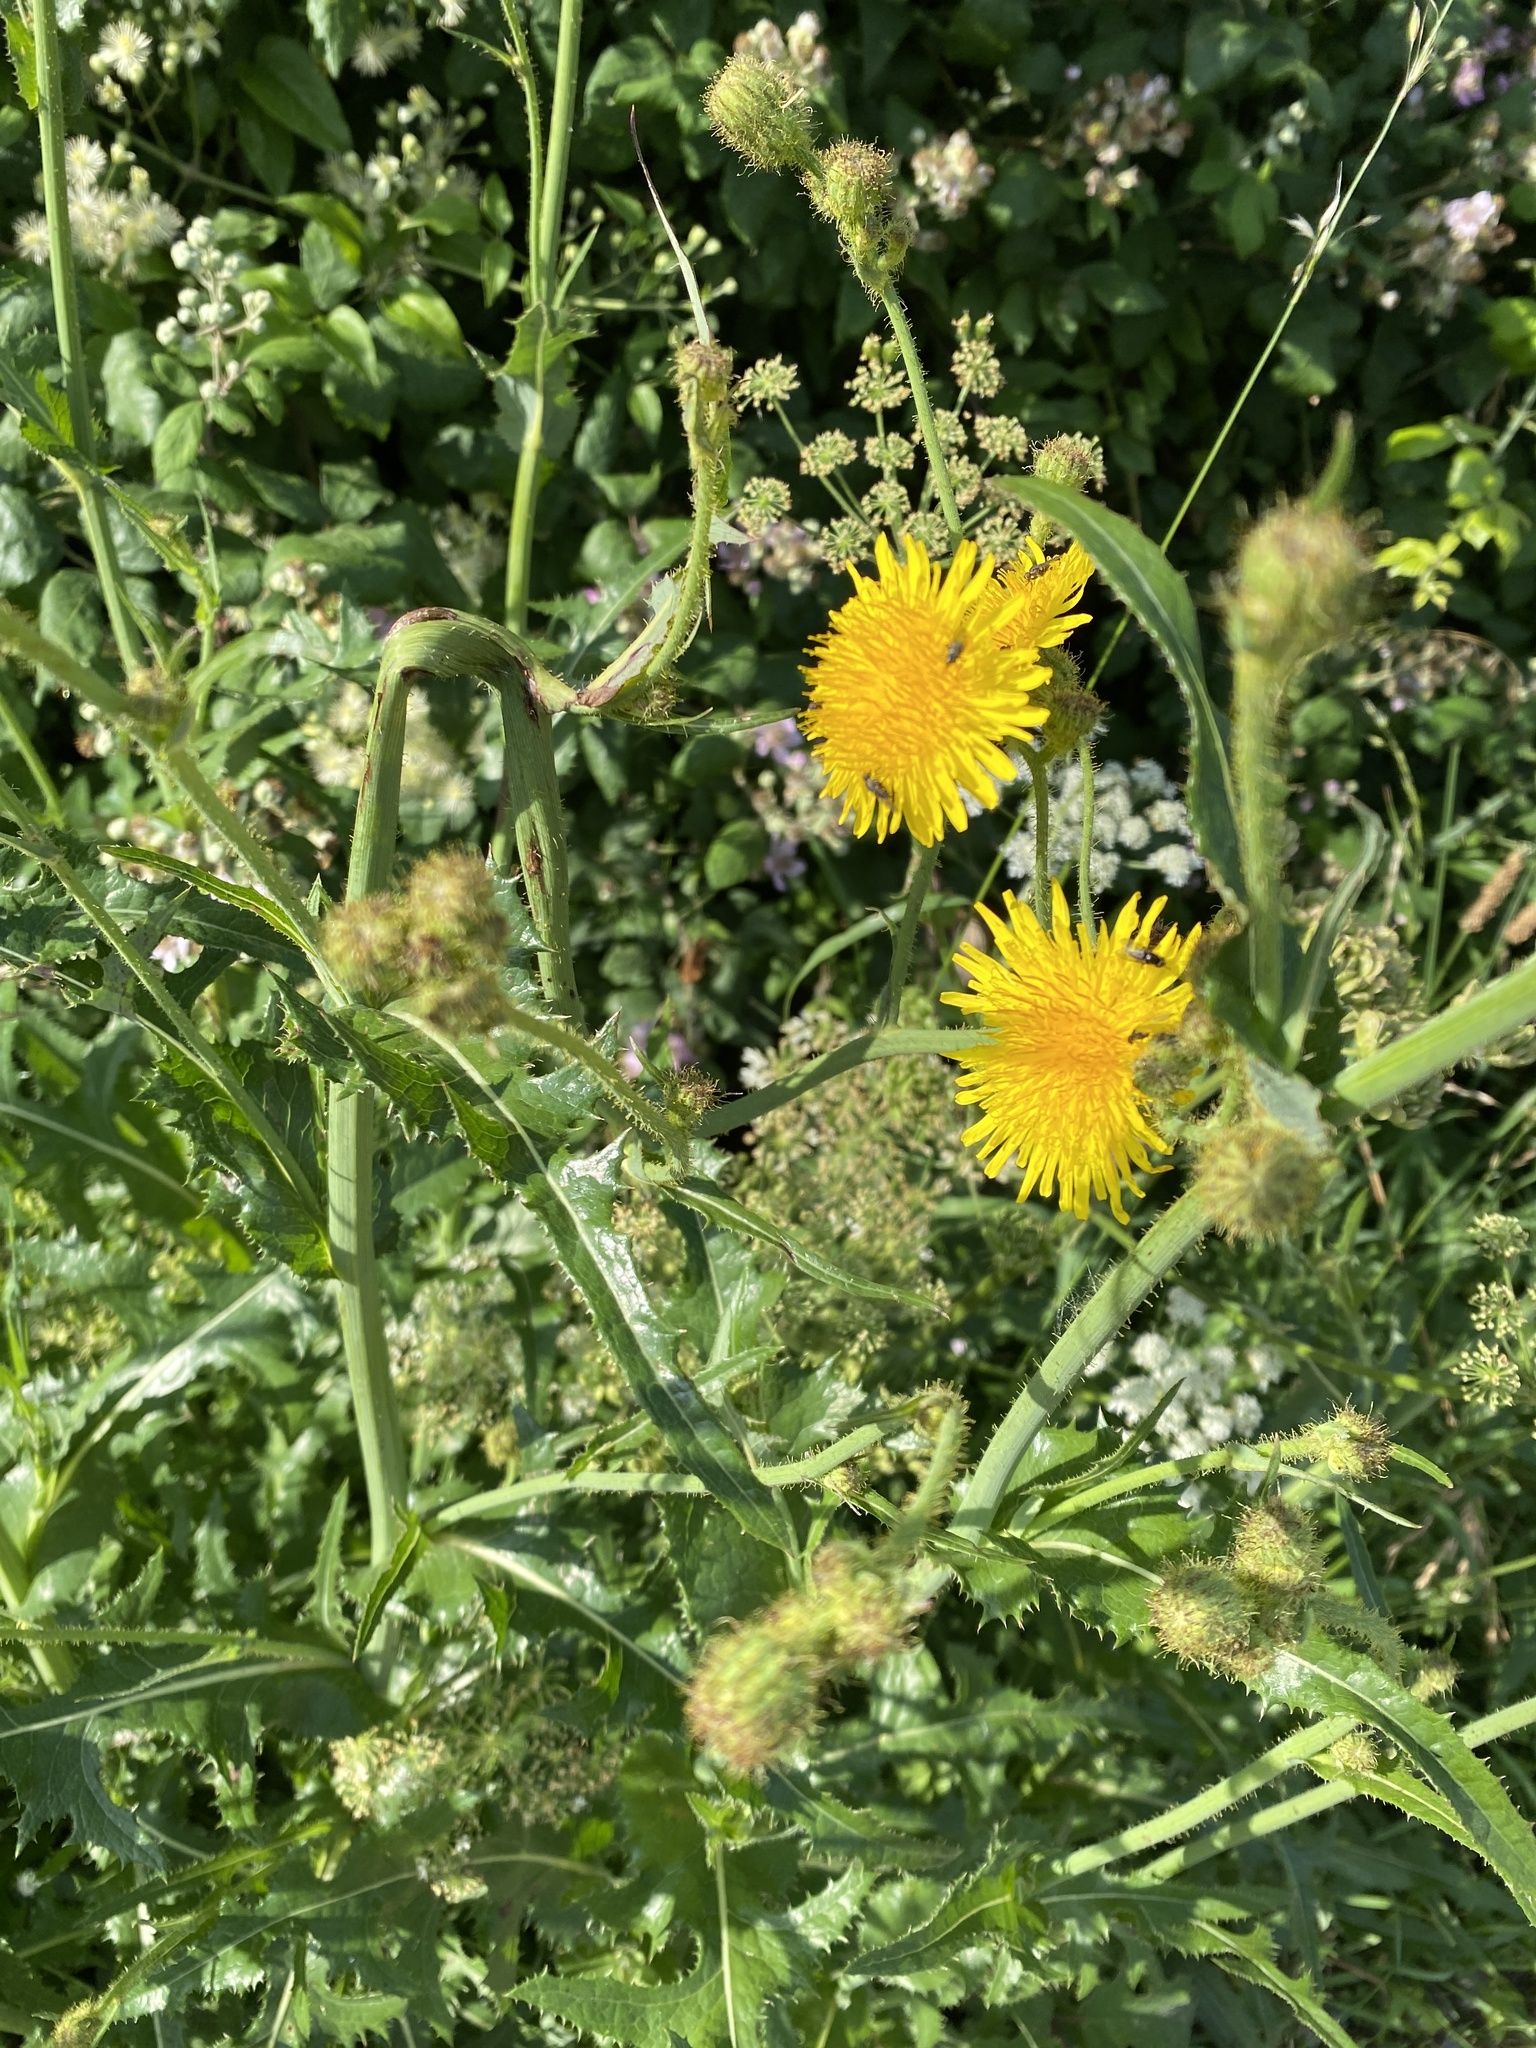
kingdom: Plantae
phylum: Tracheophyta
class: Magnoliopsida
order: Asterales
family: Asteraceae
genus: Sonchus
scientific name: Sonchus arvensis
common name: Perennial sow-thistle
